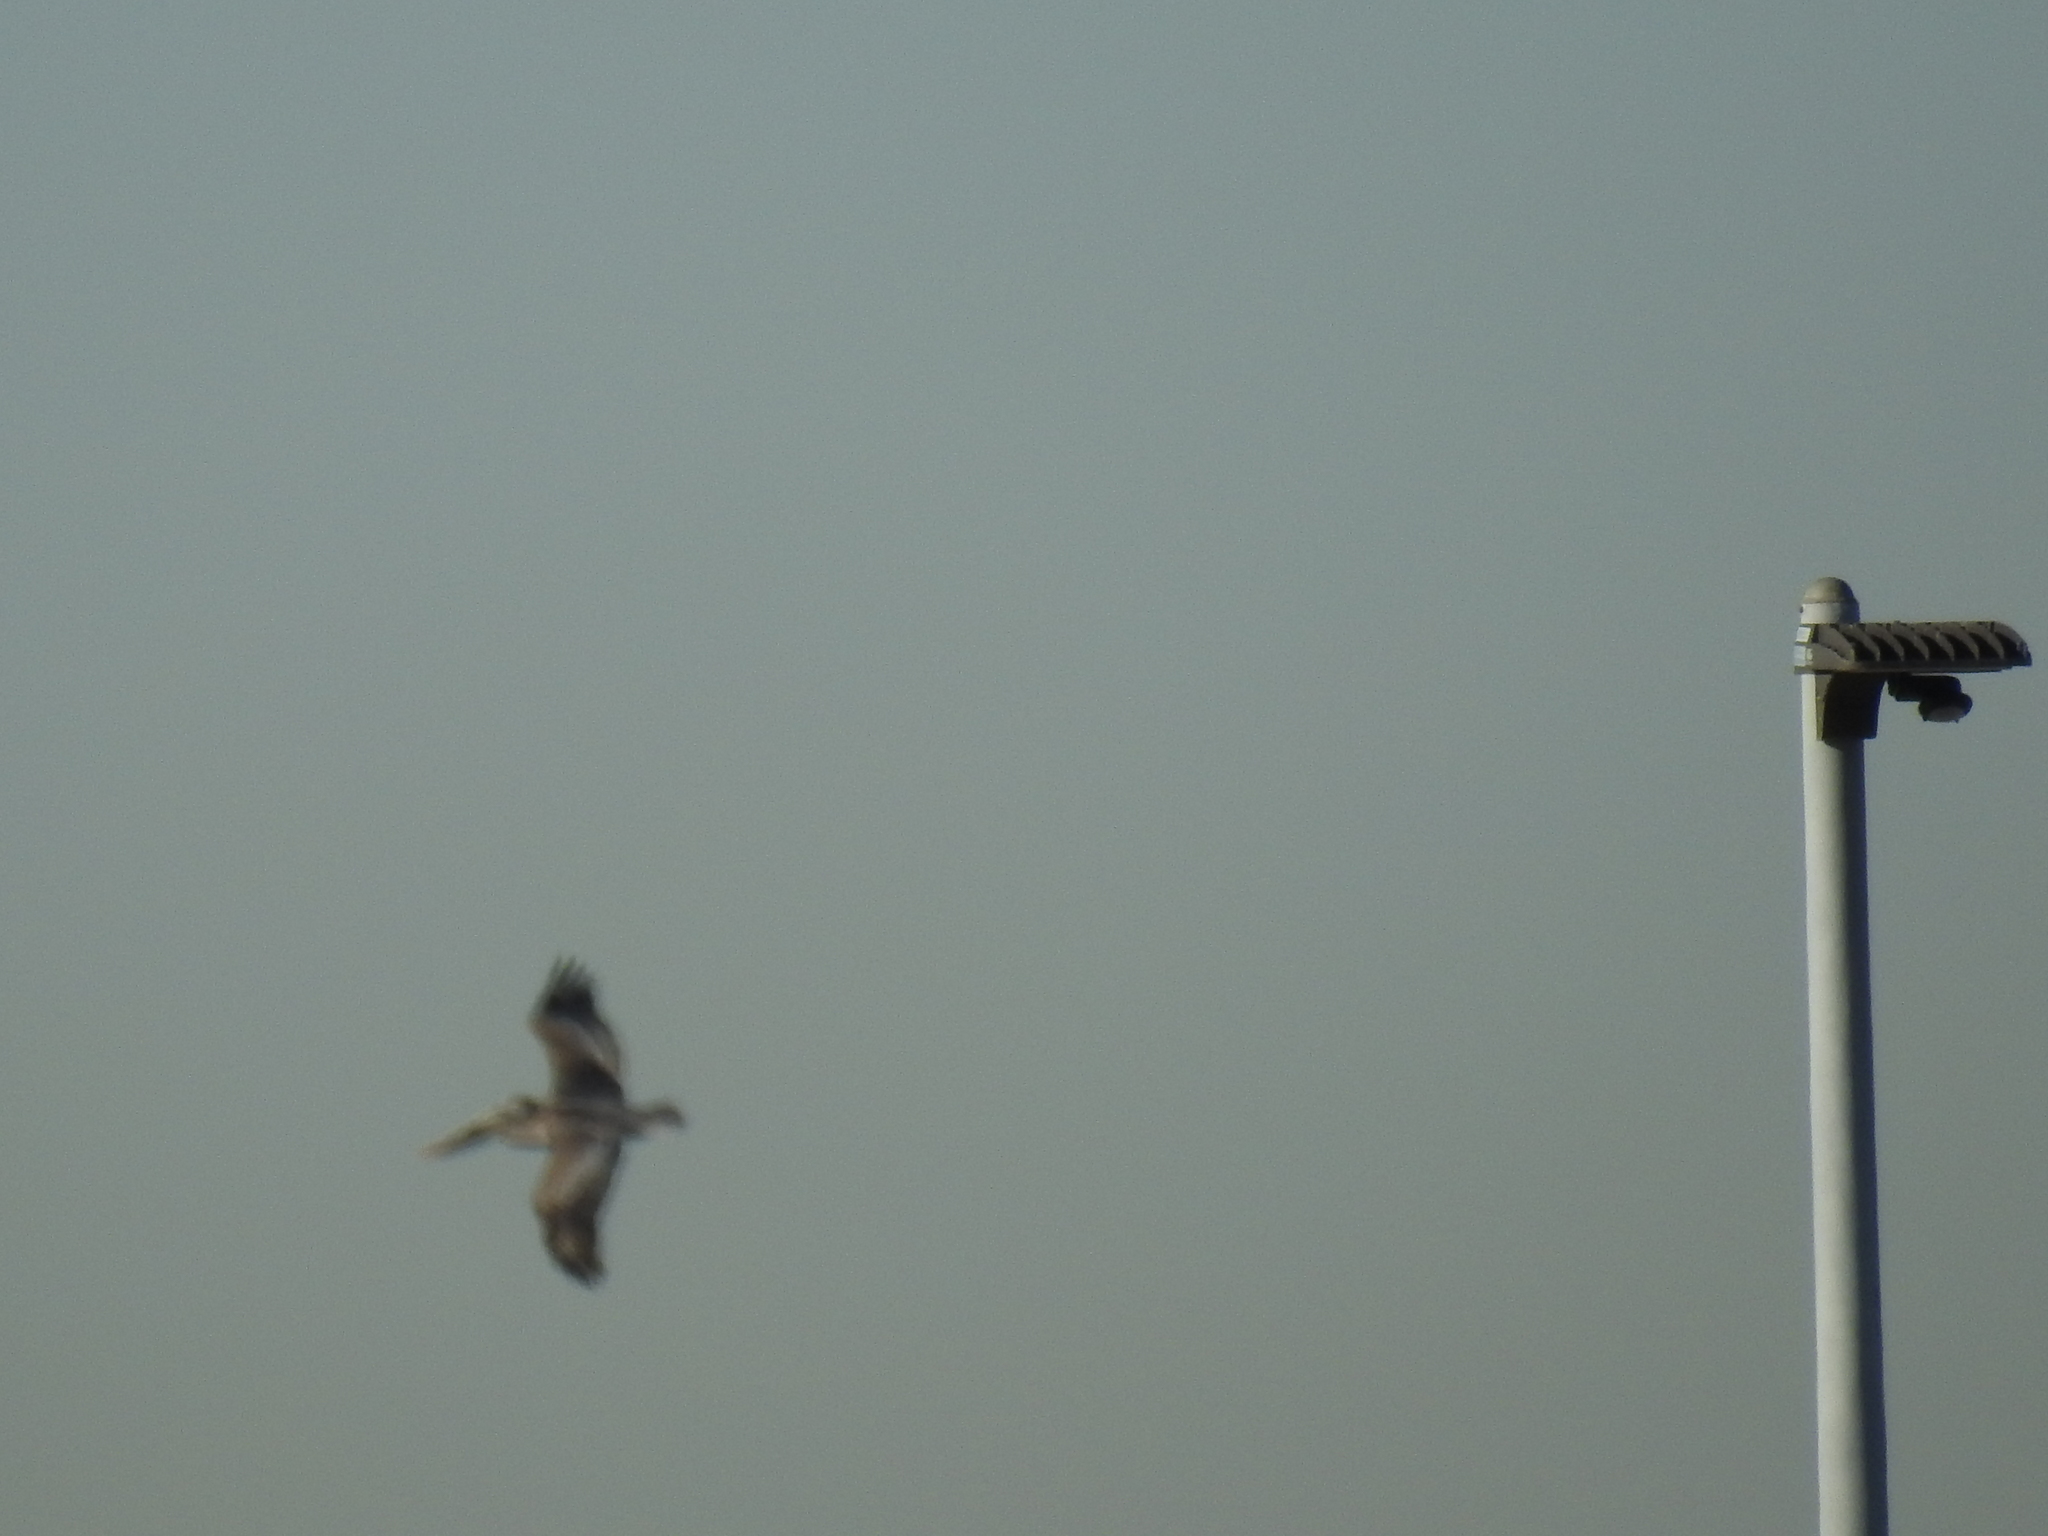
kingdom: Animalia
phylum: Chordata
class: Aves
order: Pelecaniformes
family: Pelecanidae
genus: Pelecanus
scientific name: Pelecanus occidentalis
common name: Brown pelican
